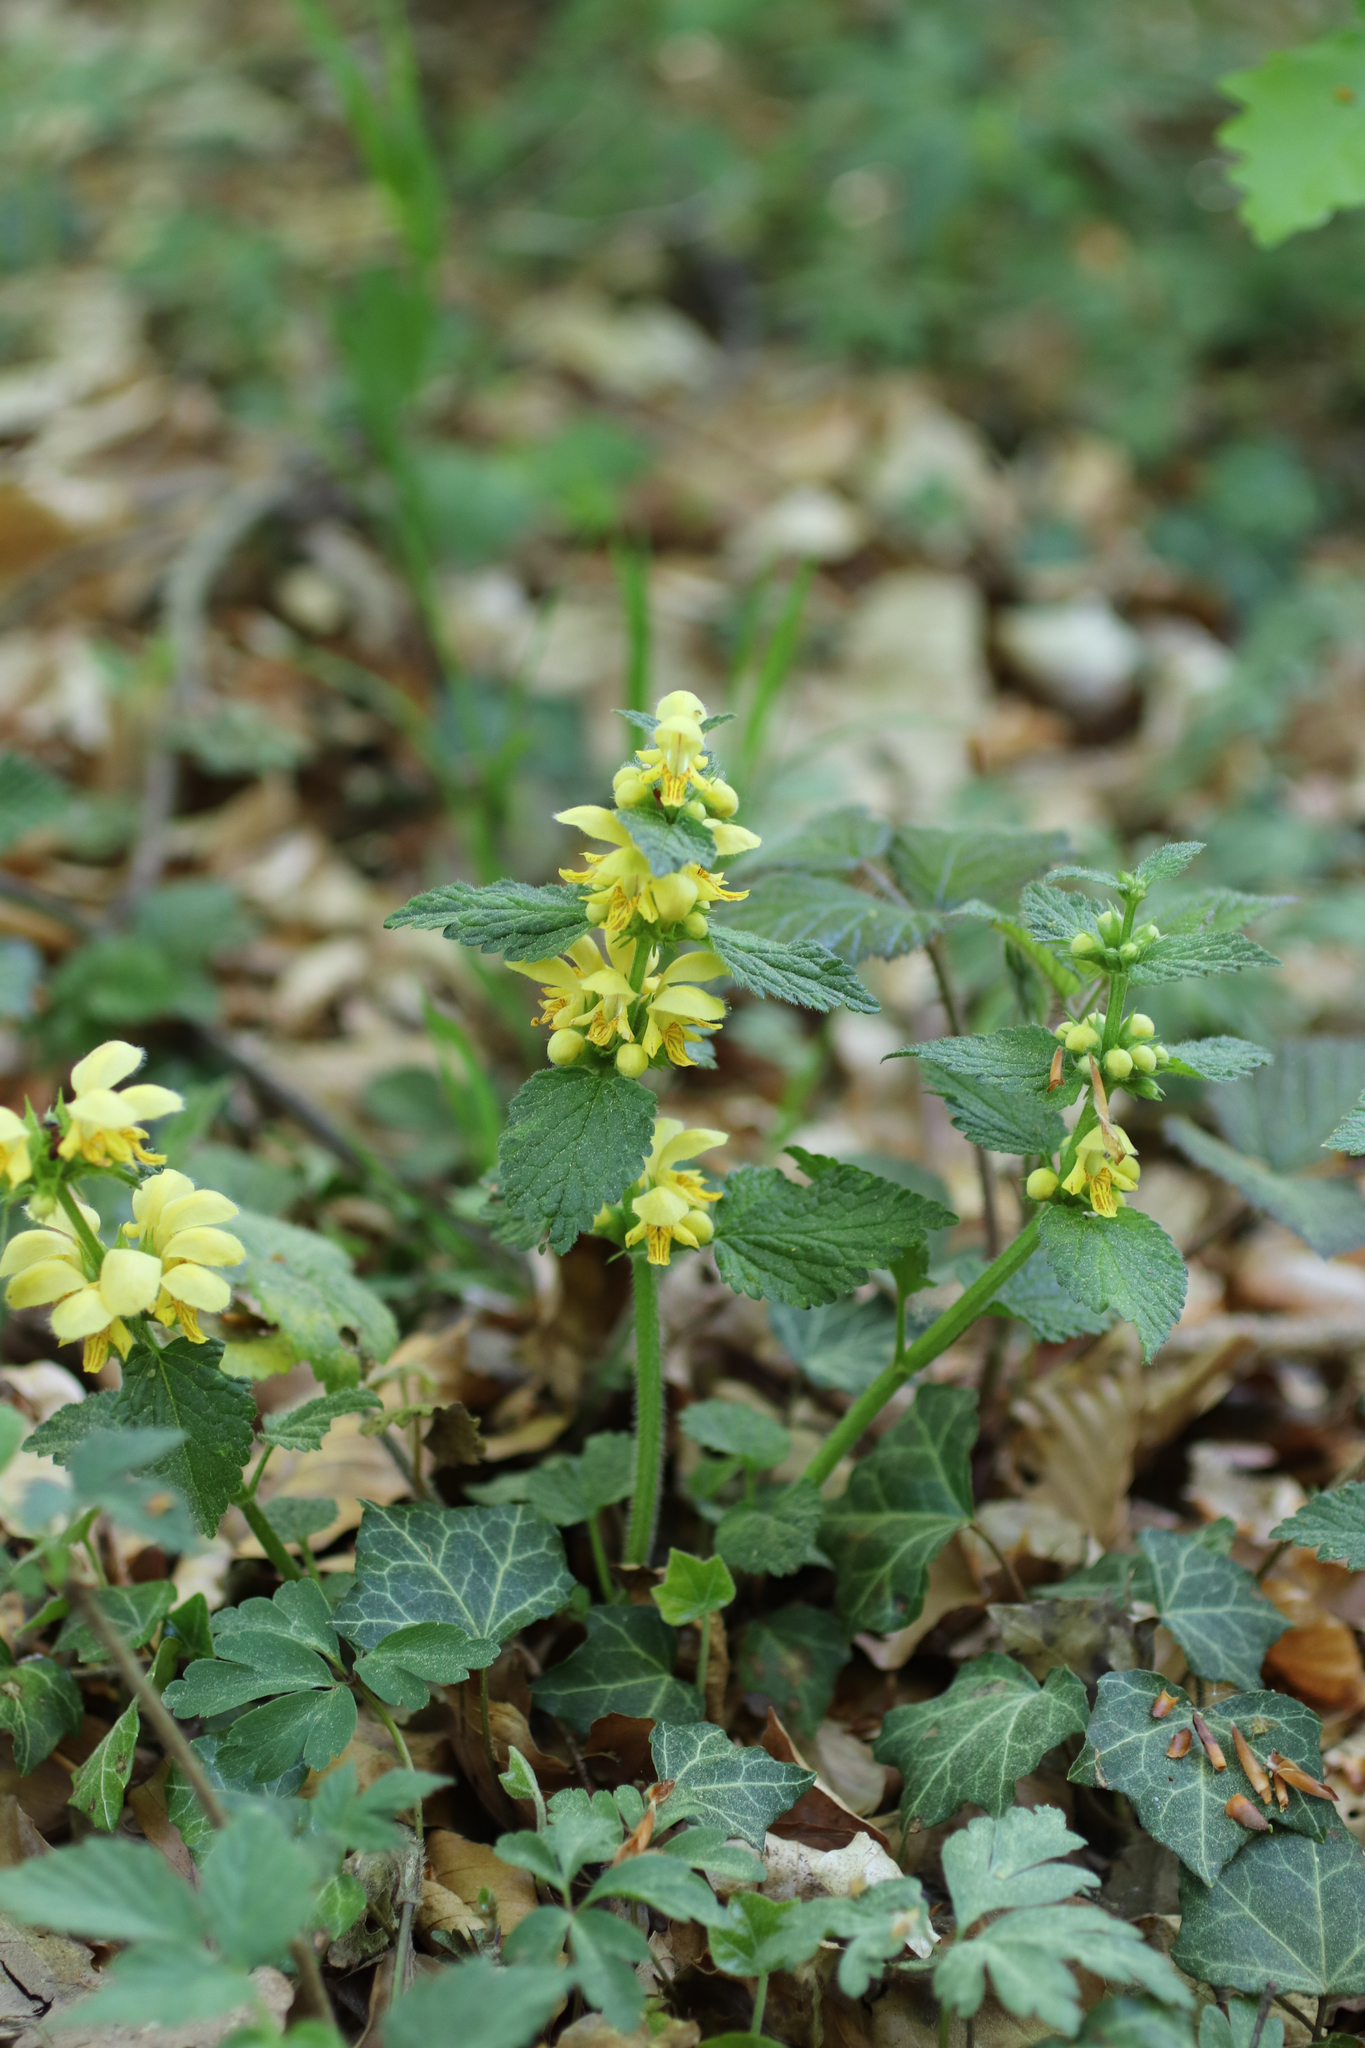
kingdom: Plantae
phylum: Tracheophyta
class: Magnoliopsida
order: Lamiales
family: Lamiaceae
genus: Lamium
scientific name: Lamium galeobdolon
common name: Yellow archangel
